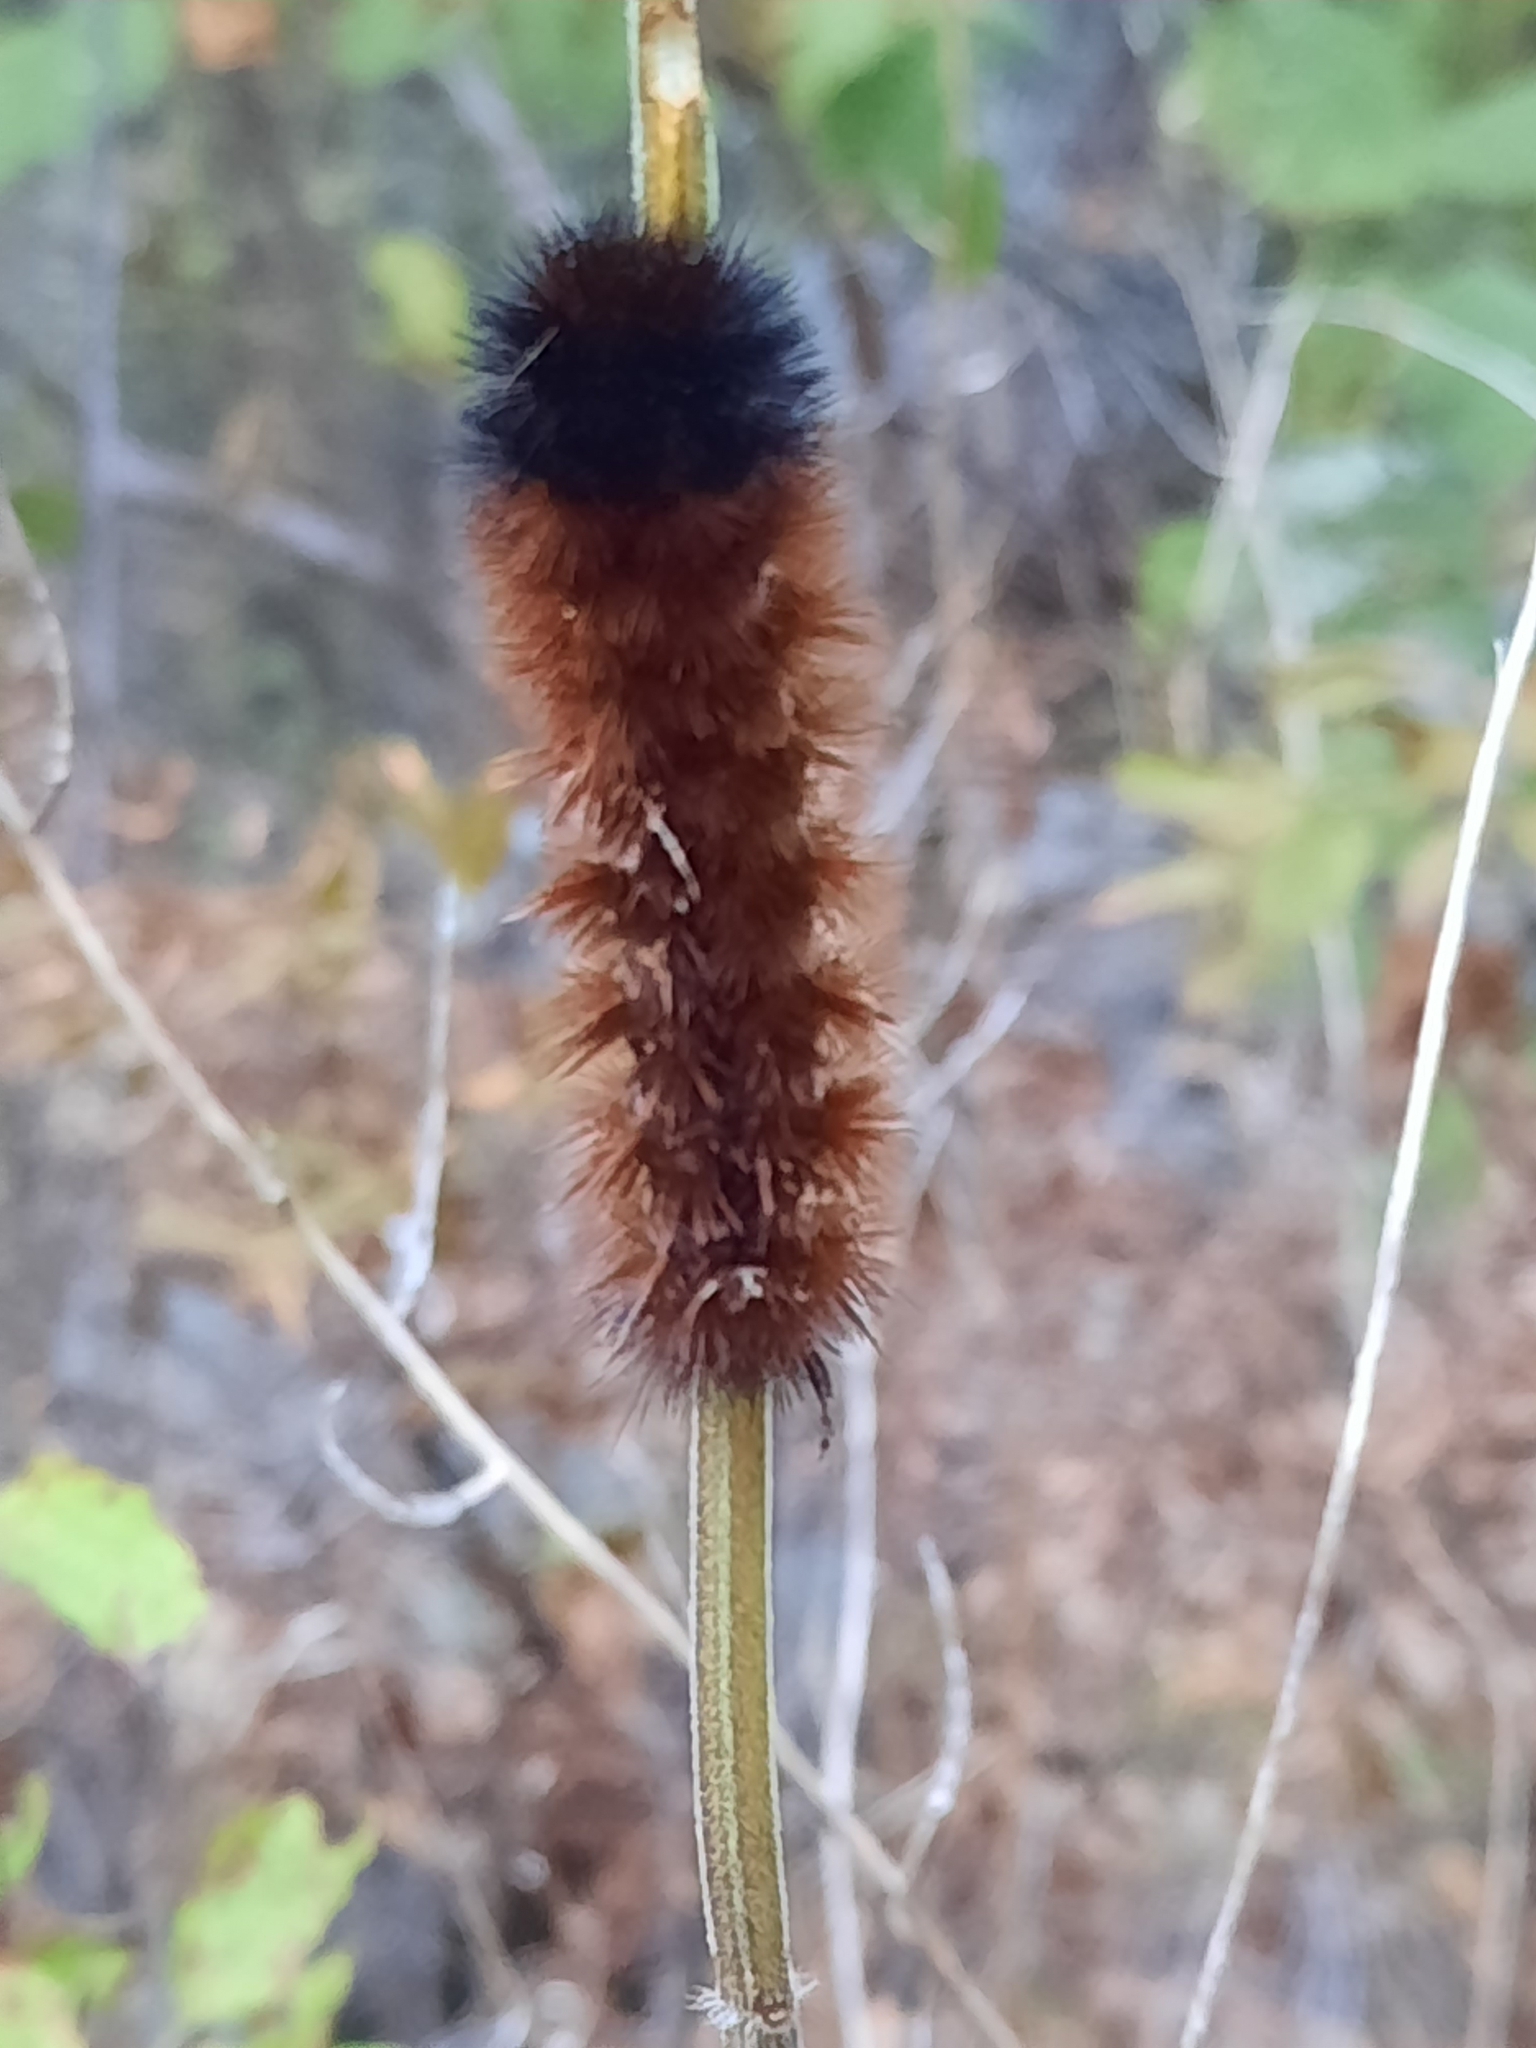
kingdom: Animalia
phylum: Arthropoda
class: Insecta
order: Lepidoptera
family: Erebidae
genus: Pyrrharctia
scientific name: Pyrrharctia isabella
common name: Isabella tiger moth
